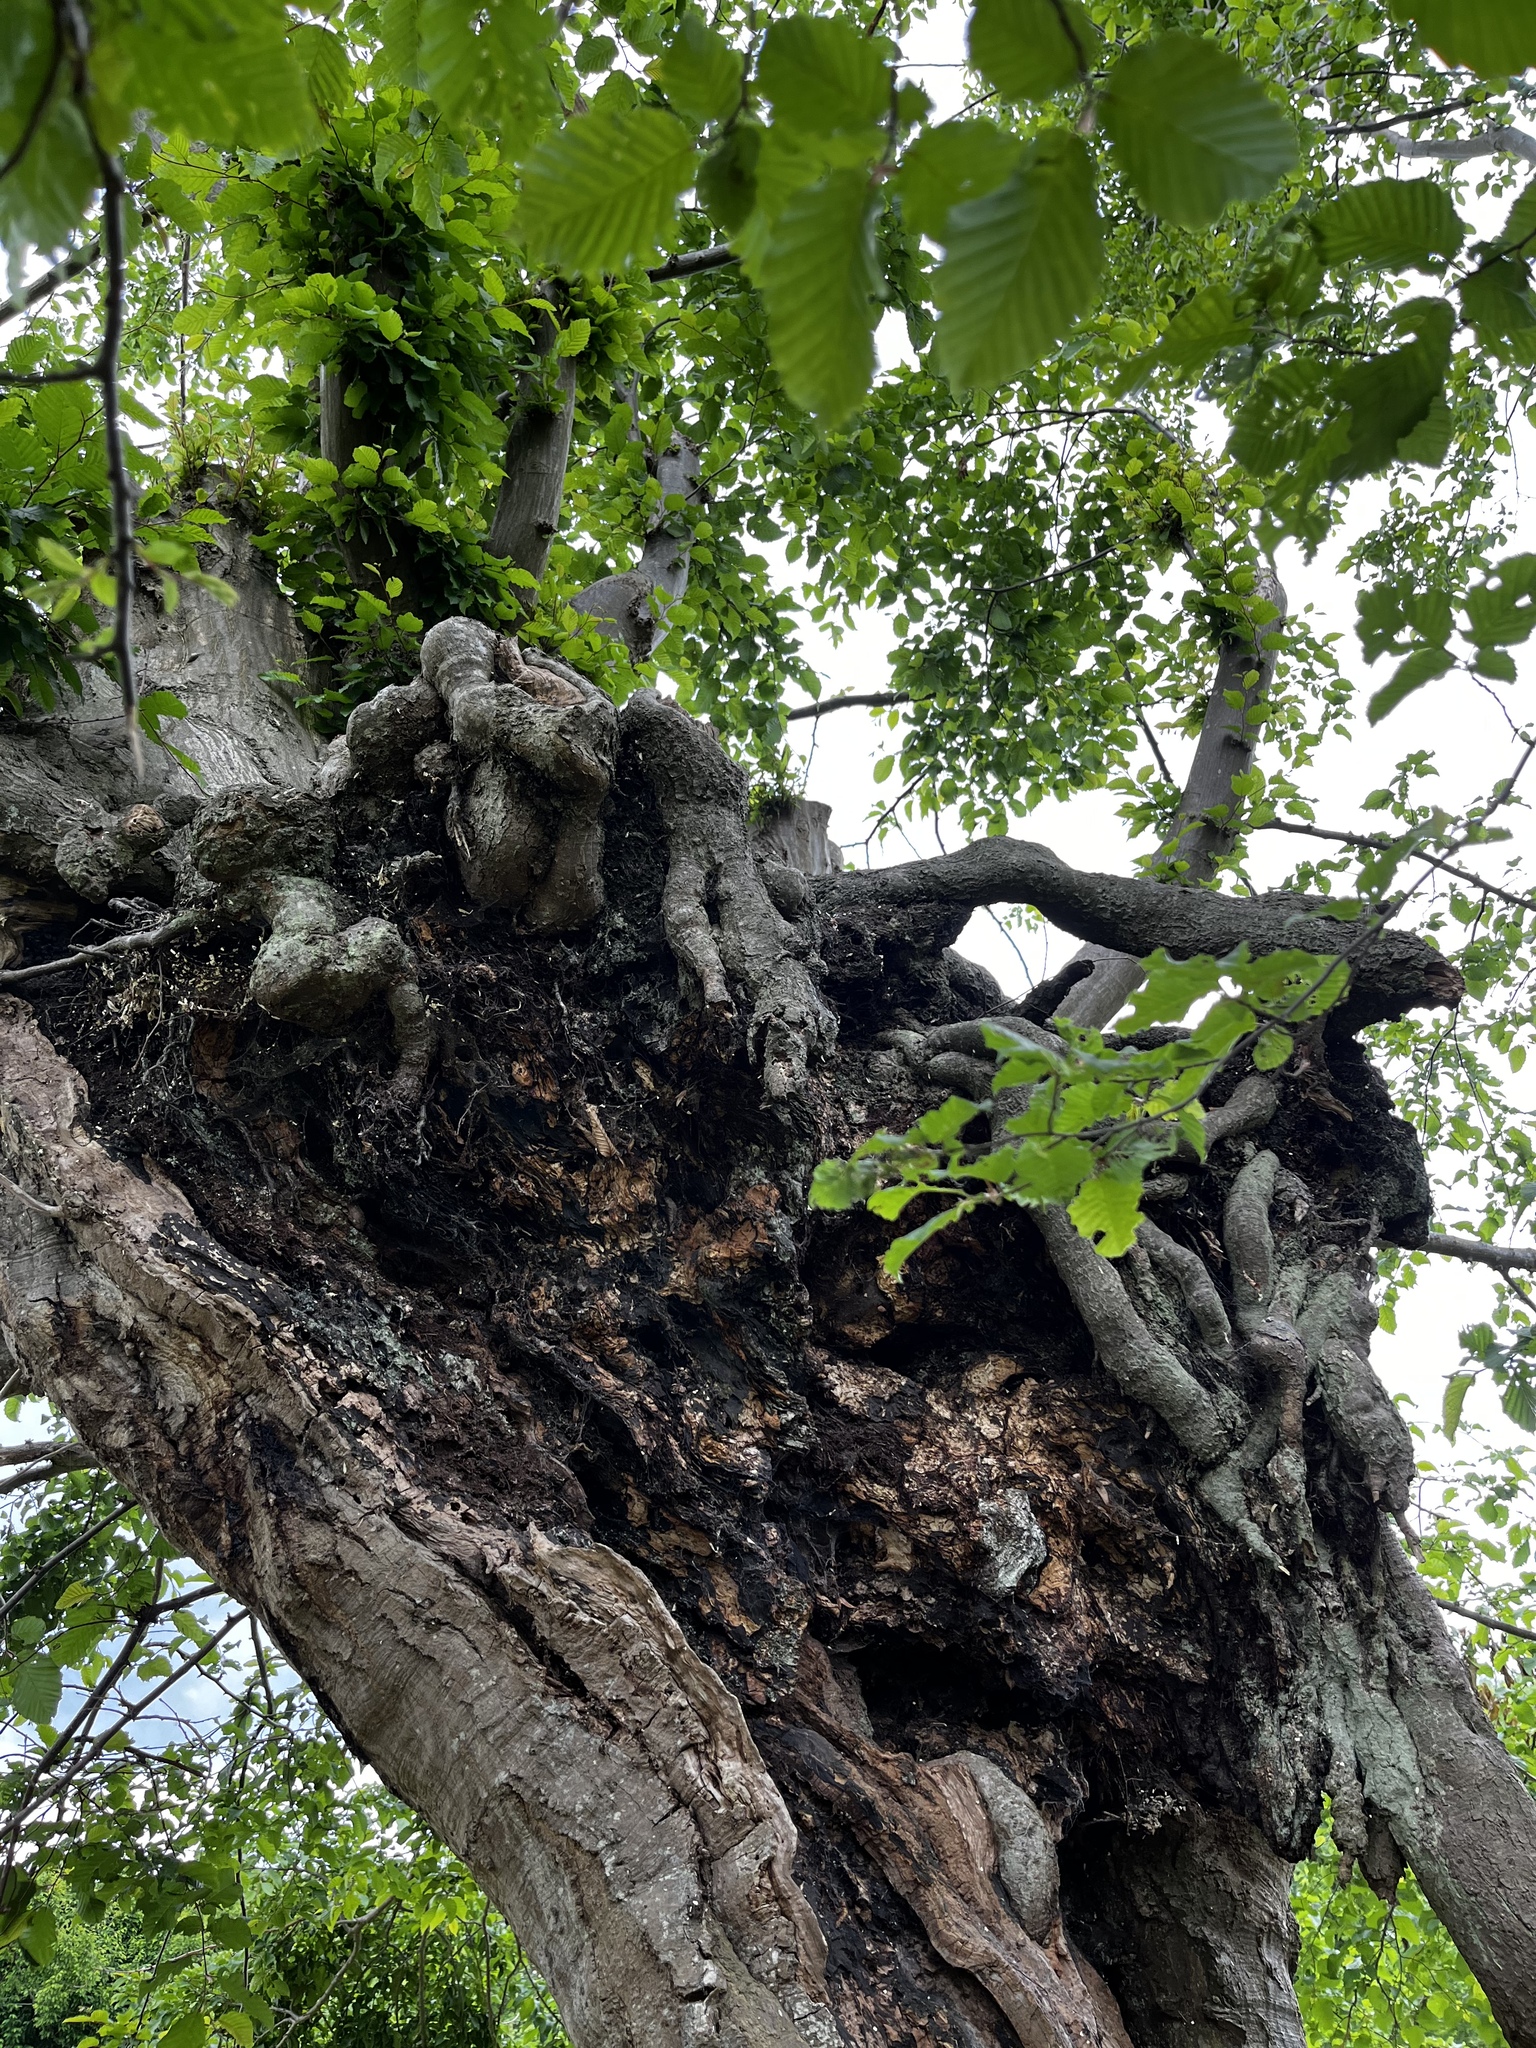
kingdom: Plantae
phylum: Tracheophyta
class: Magnoliopsida
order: Fagales
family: Betulaceae
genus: Carpinus
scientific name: Carpinus betulus
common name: Hornbeam
